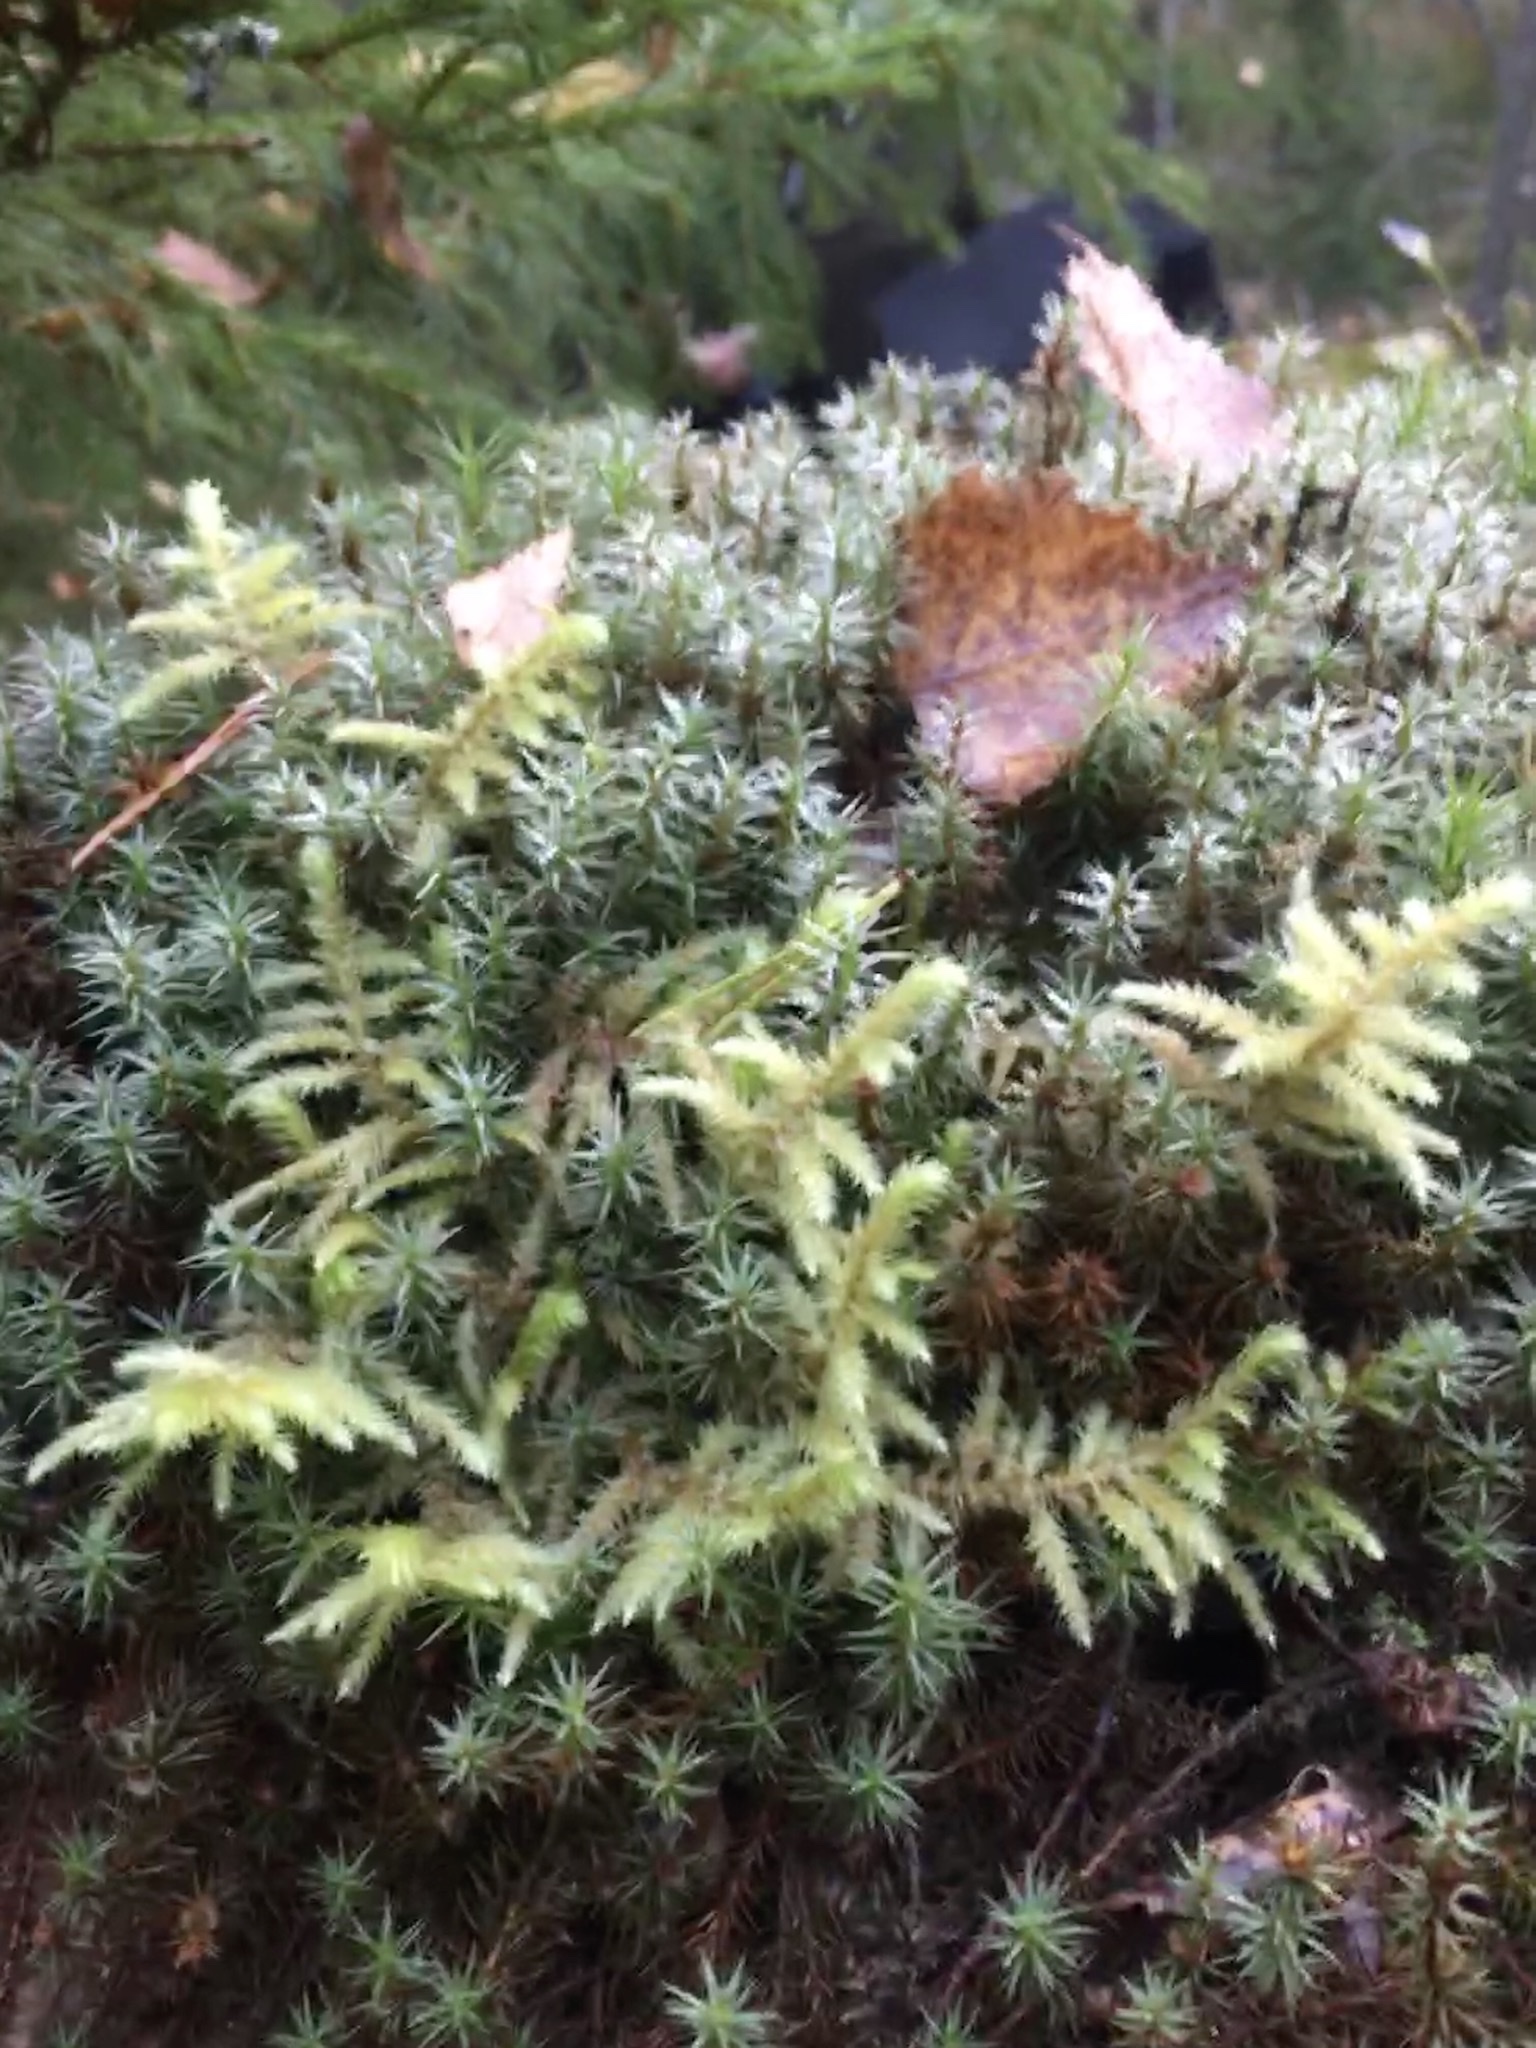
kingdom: Plantae
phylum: Bryophyta
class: Bryopsida
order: Hypnales
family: Hylocomiaceae
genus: Pleurozium
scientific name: Pleurozium schreberi
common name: Red-stemmed feather moss
